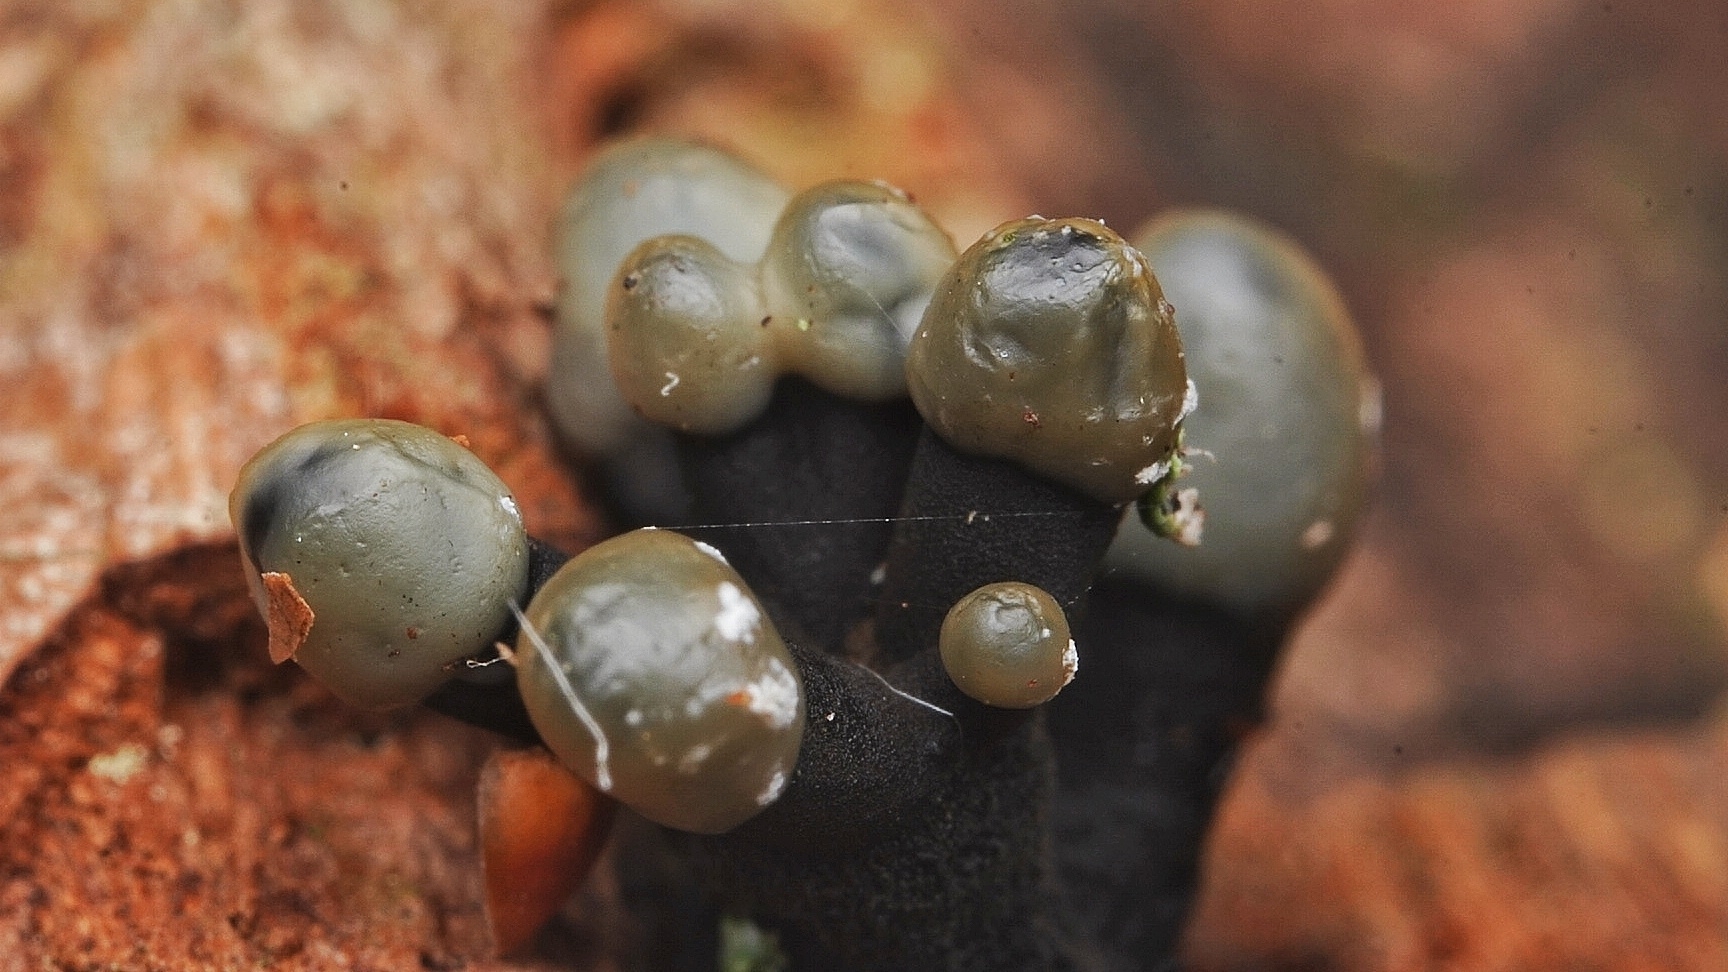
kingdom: Fungi
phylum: Ascomycota
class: Leotiomycetes
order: Helotiales
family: Bulgariaceae
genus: Holwaya
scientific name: Holwaya mucida
